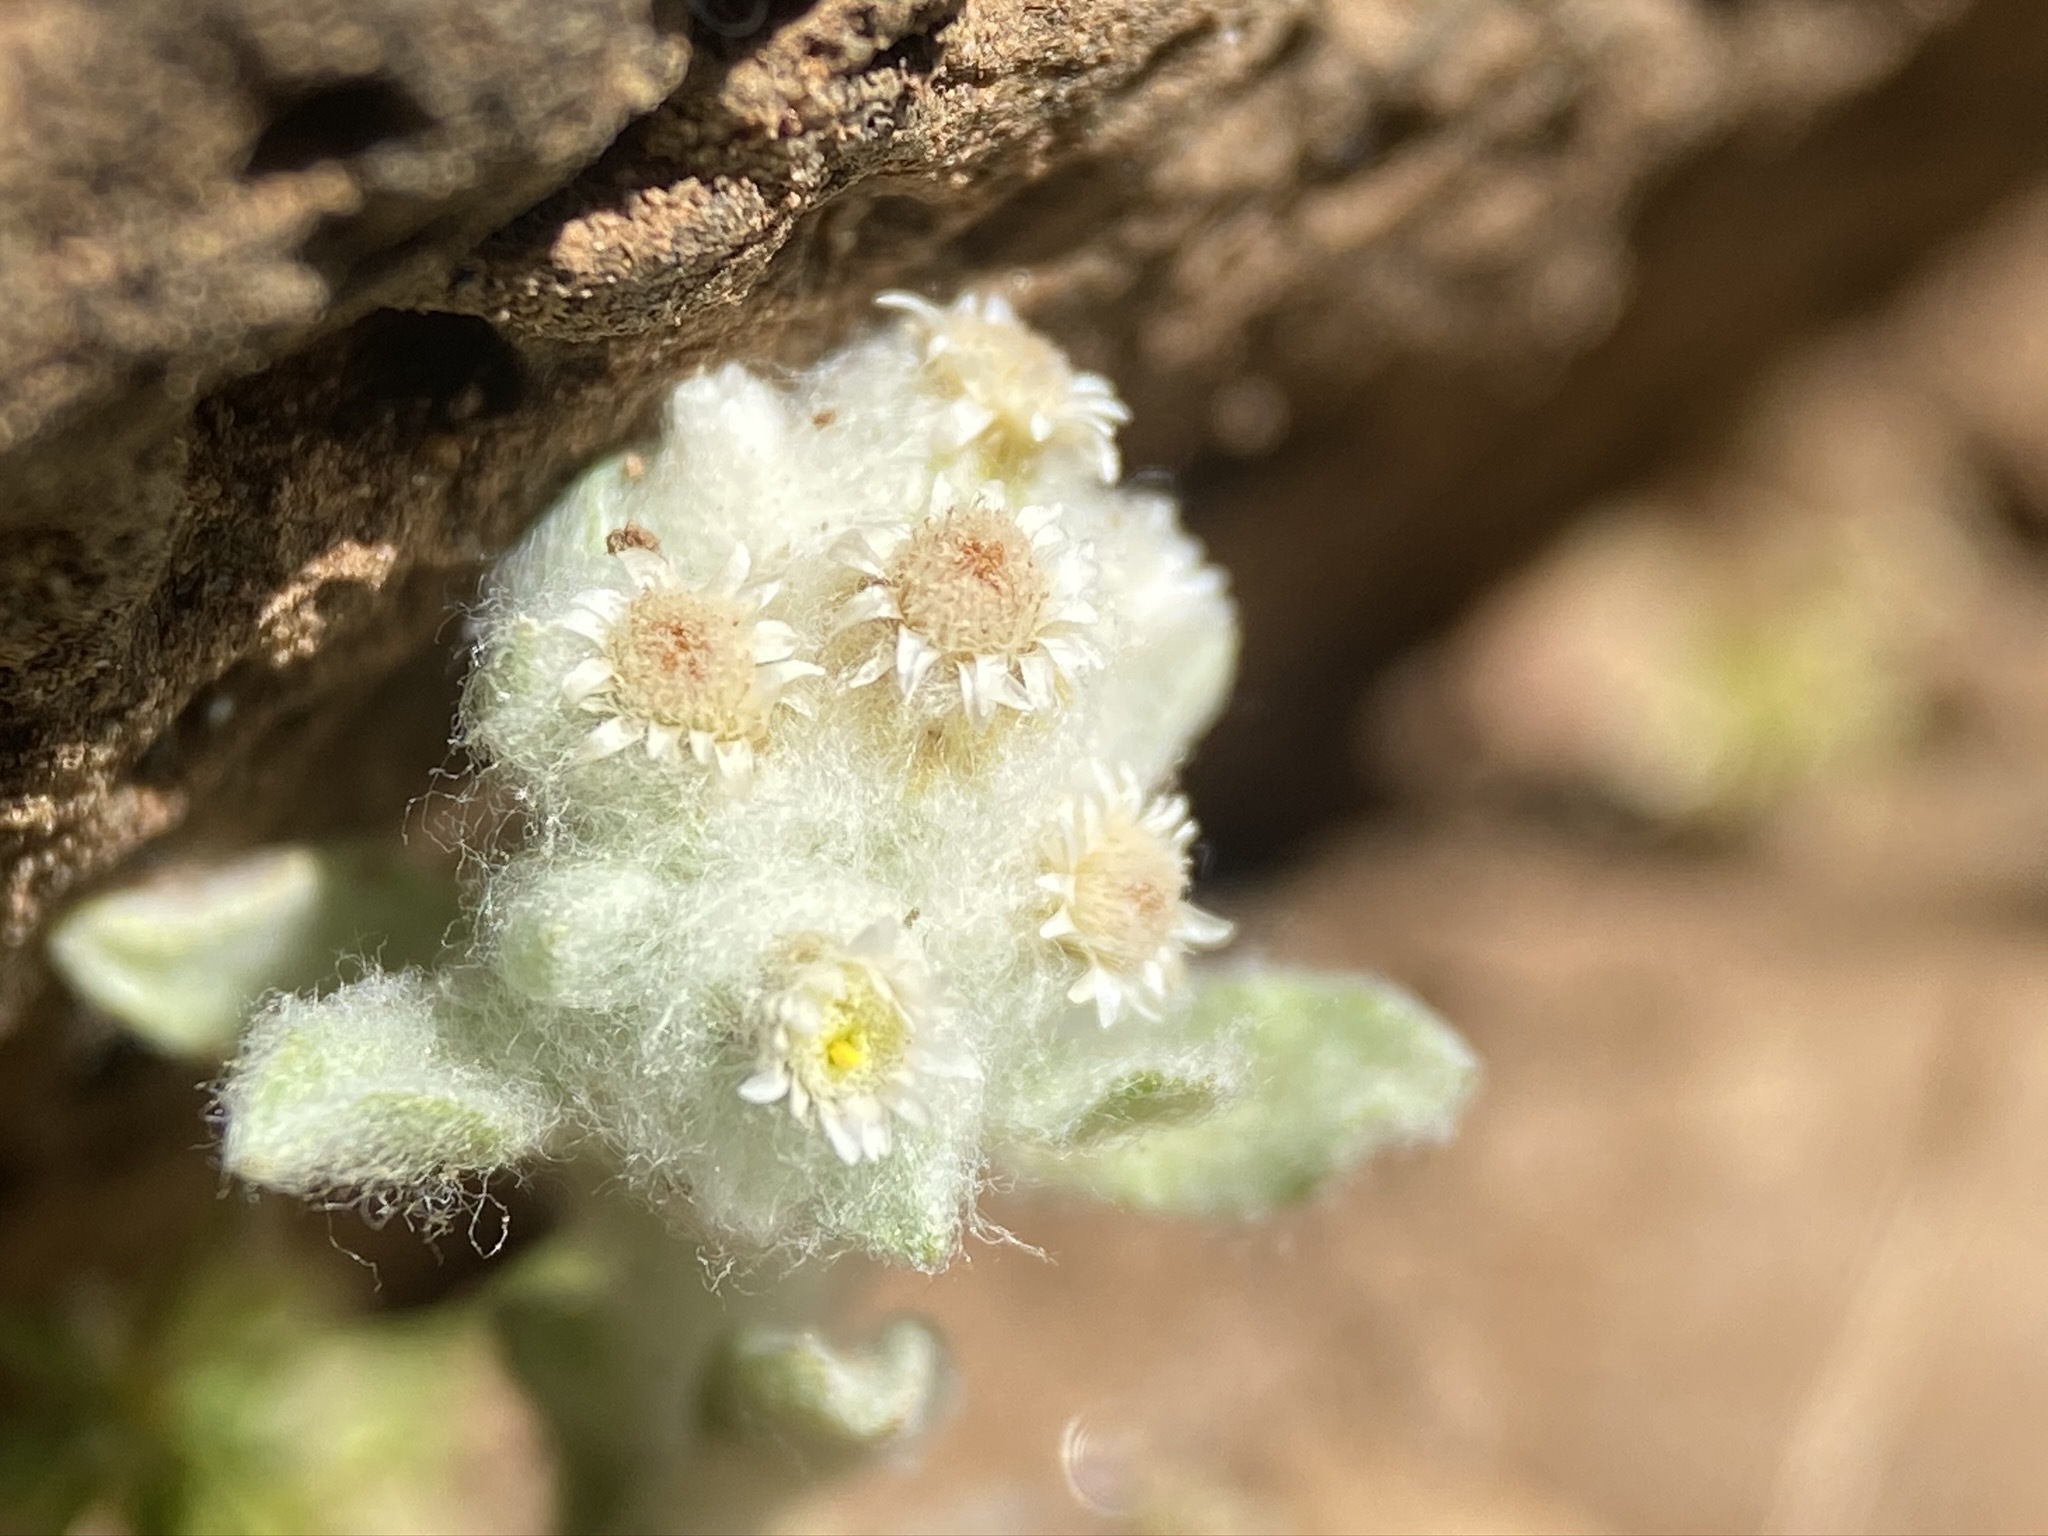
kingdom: Plantae
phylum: Tracheophyta
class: Magnoliopsida
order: Asterales
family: Asteraceae
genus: Gnaphalium
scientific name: Gnaphalium palustre
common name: Western marsh cudweed
